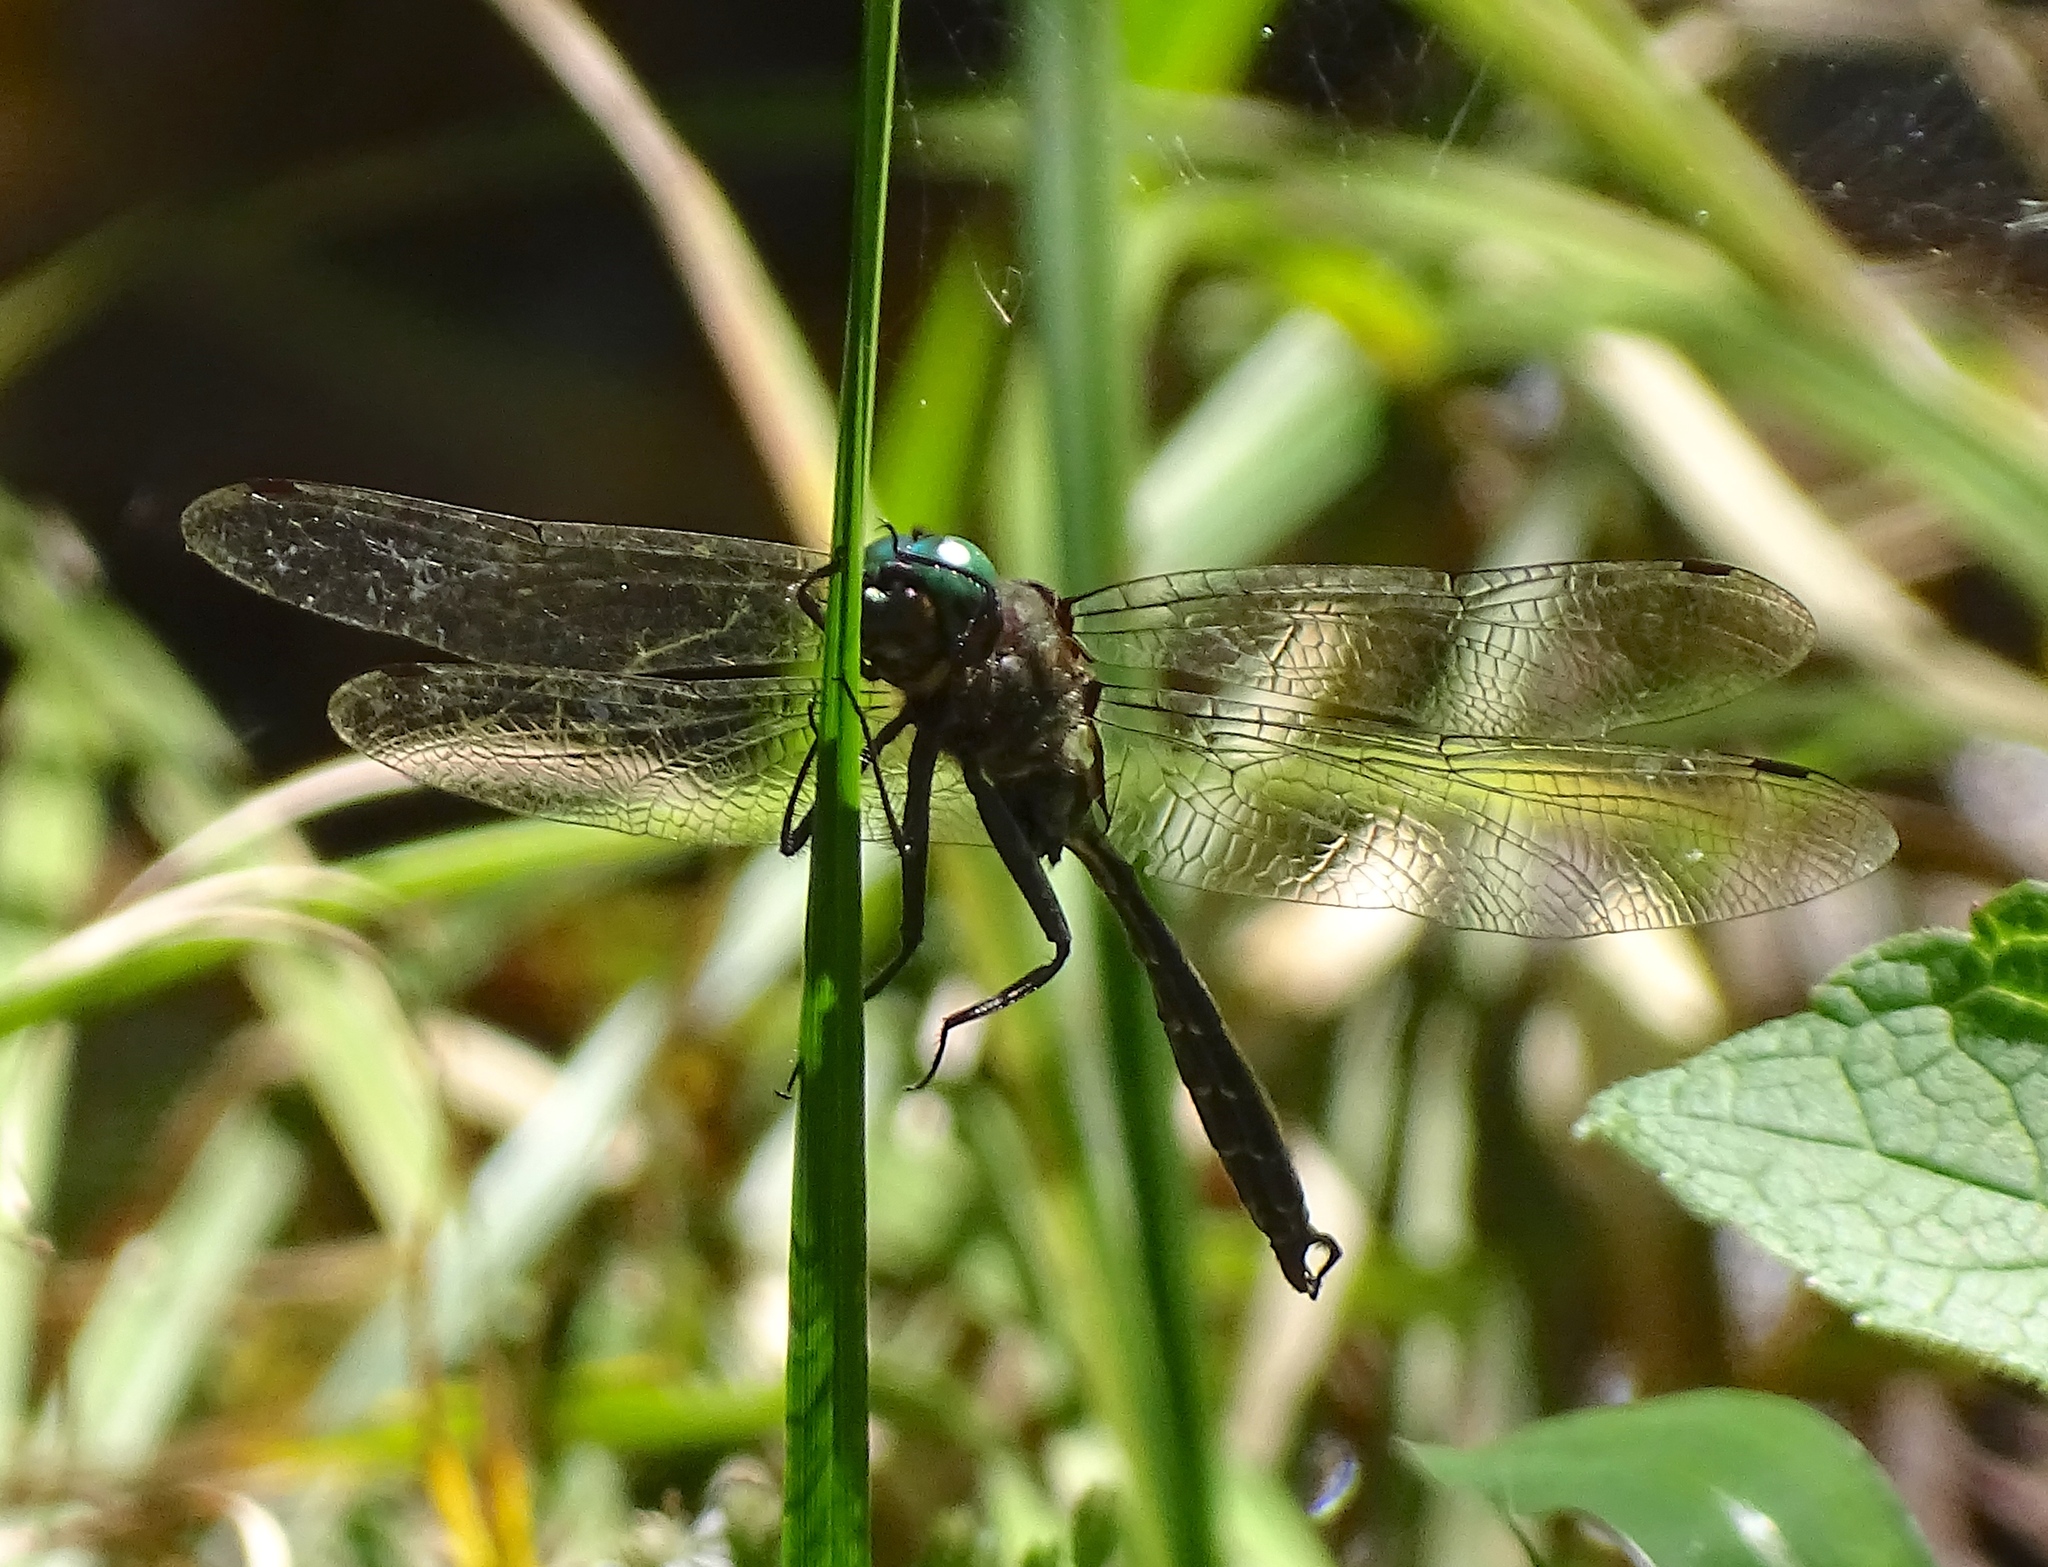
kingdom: Animalia
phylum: Arthropoda
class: Insecta
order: Odonata
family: Corduliidae
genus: Somatochlora
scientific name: Somatochlora tenebrosa
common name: Clamp-tipped emerald
